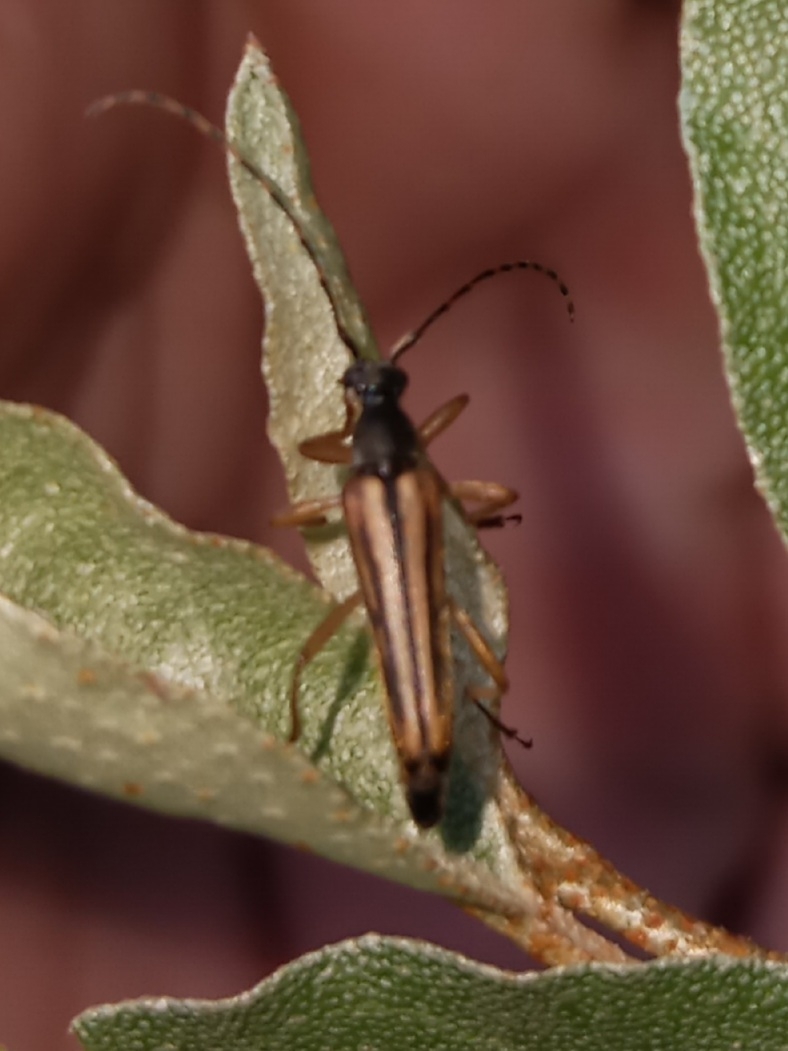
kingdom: Animalia
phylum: Arthropoda
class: Insecta
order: Coleoptera
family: Cerambycidae
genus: Analeptura
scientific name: Analeptura lineola
